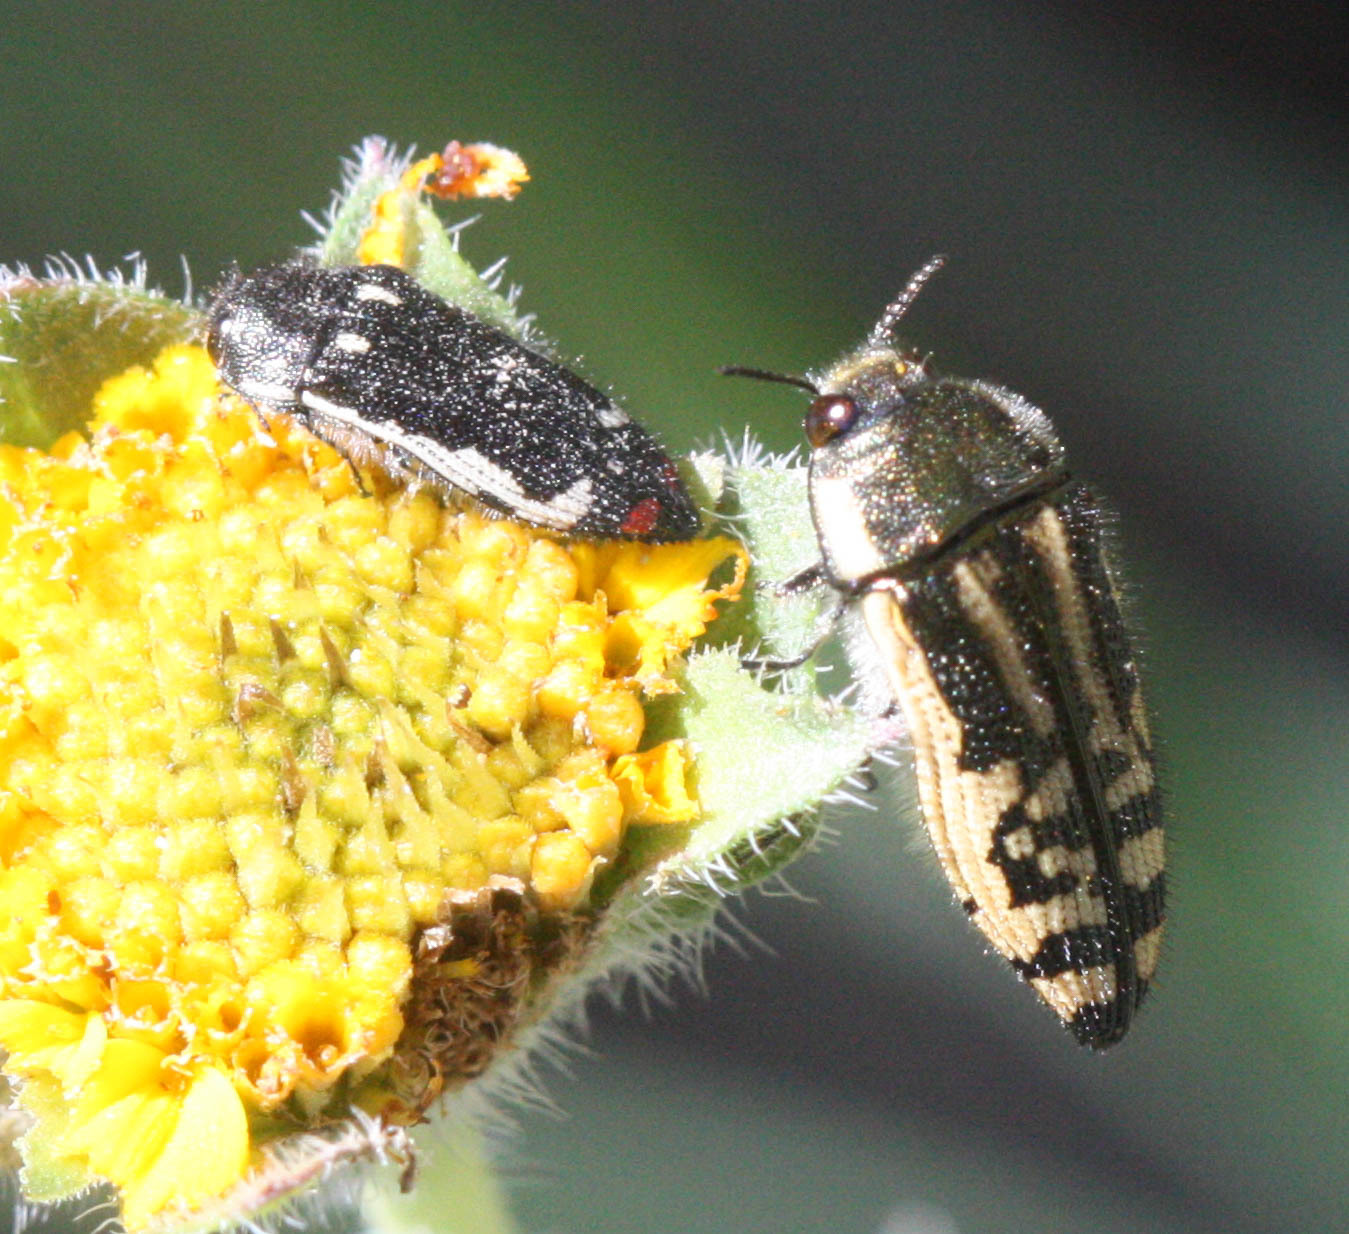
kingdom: Animalia
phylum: Arthropoda
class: Insecta
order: Coleoptera
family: Buprestidae
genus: Acmaeodera
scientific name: Acmaeodera amabilis
